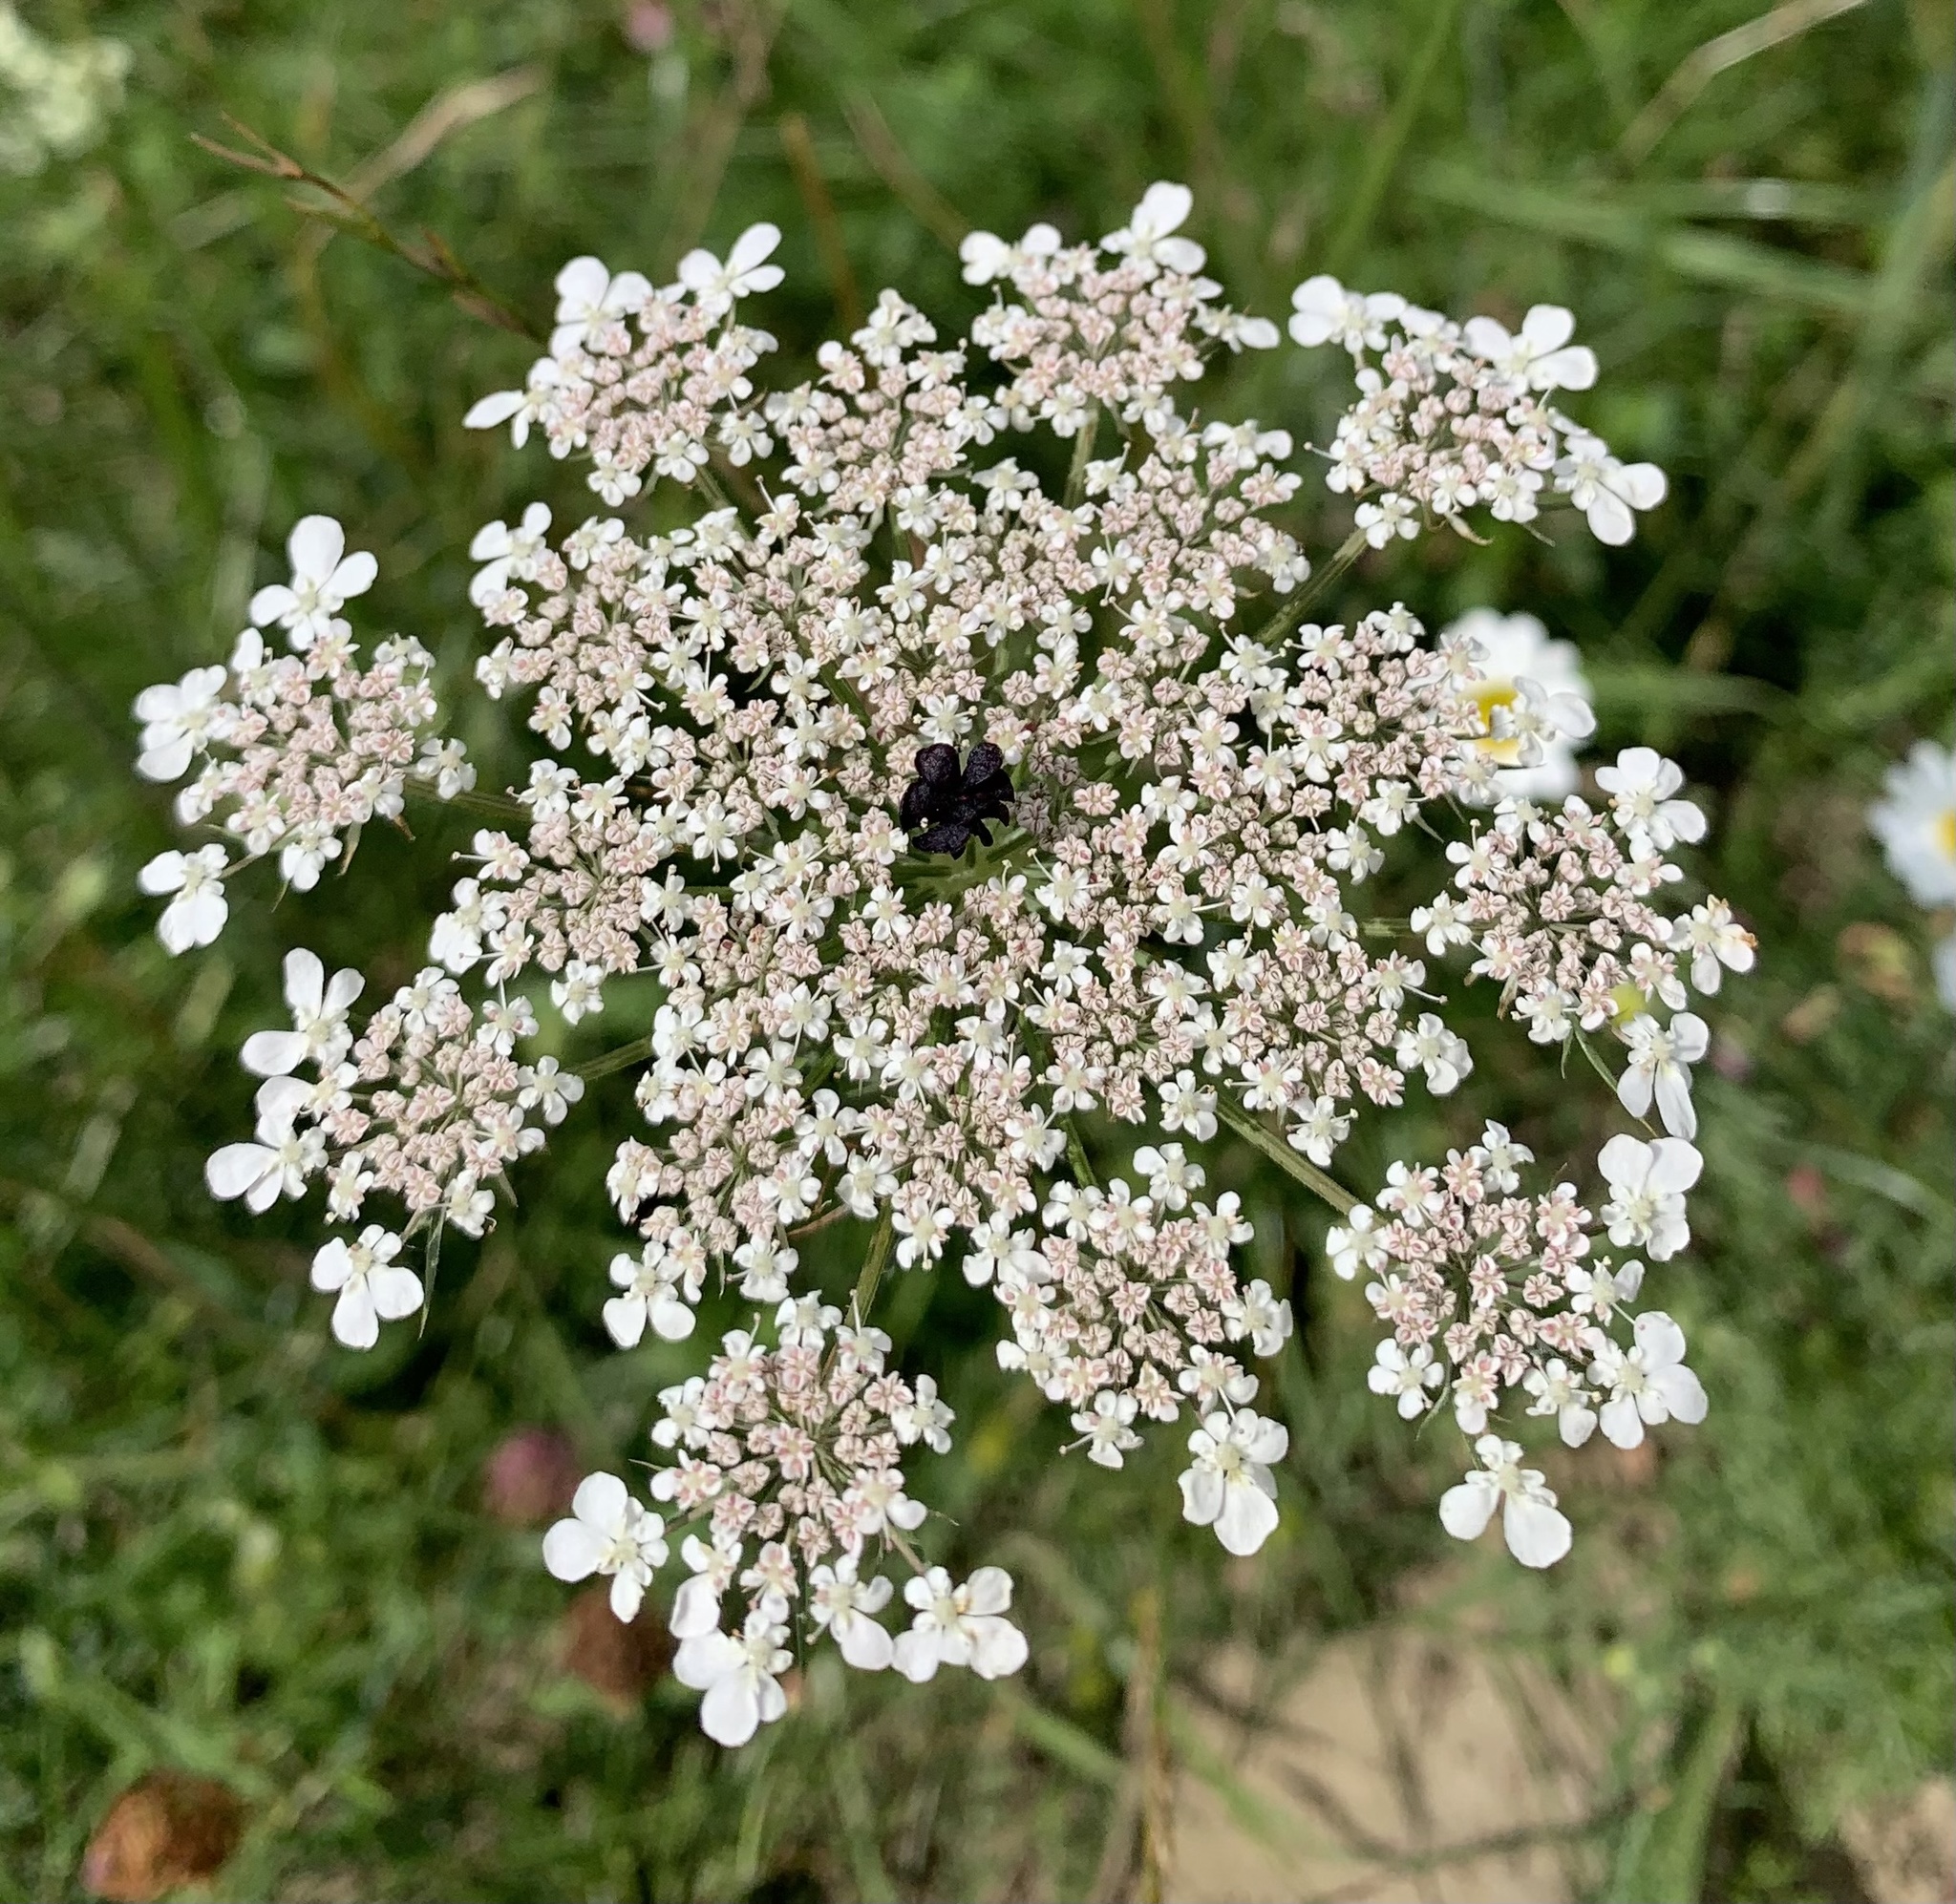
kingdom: Plantae
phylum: Tracheophyta
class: Magnoliopsida
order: Apiales
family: Apiaceae
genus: Daucus
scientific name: Daucus carota
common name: Wild carrot
